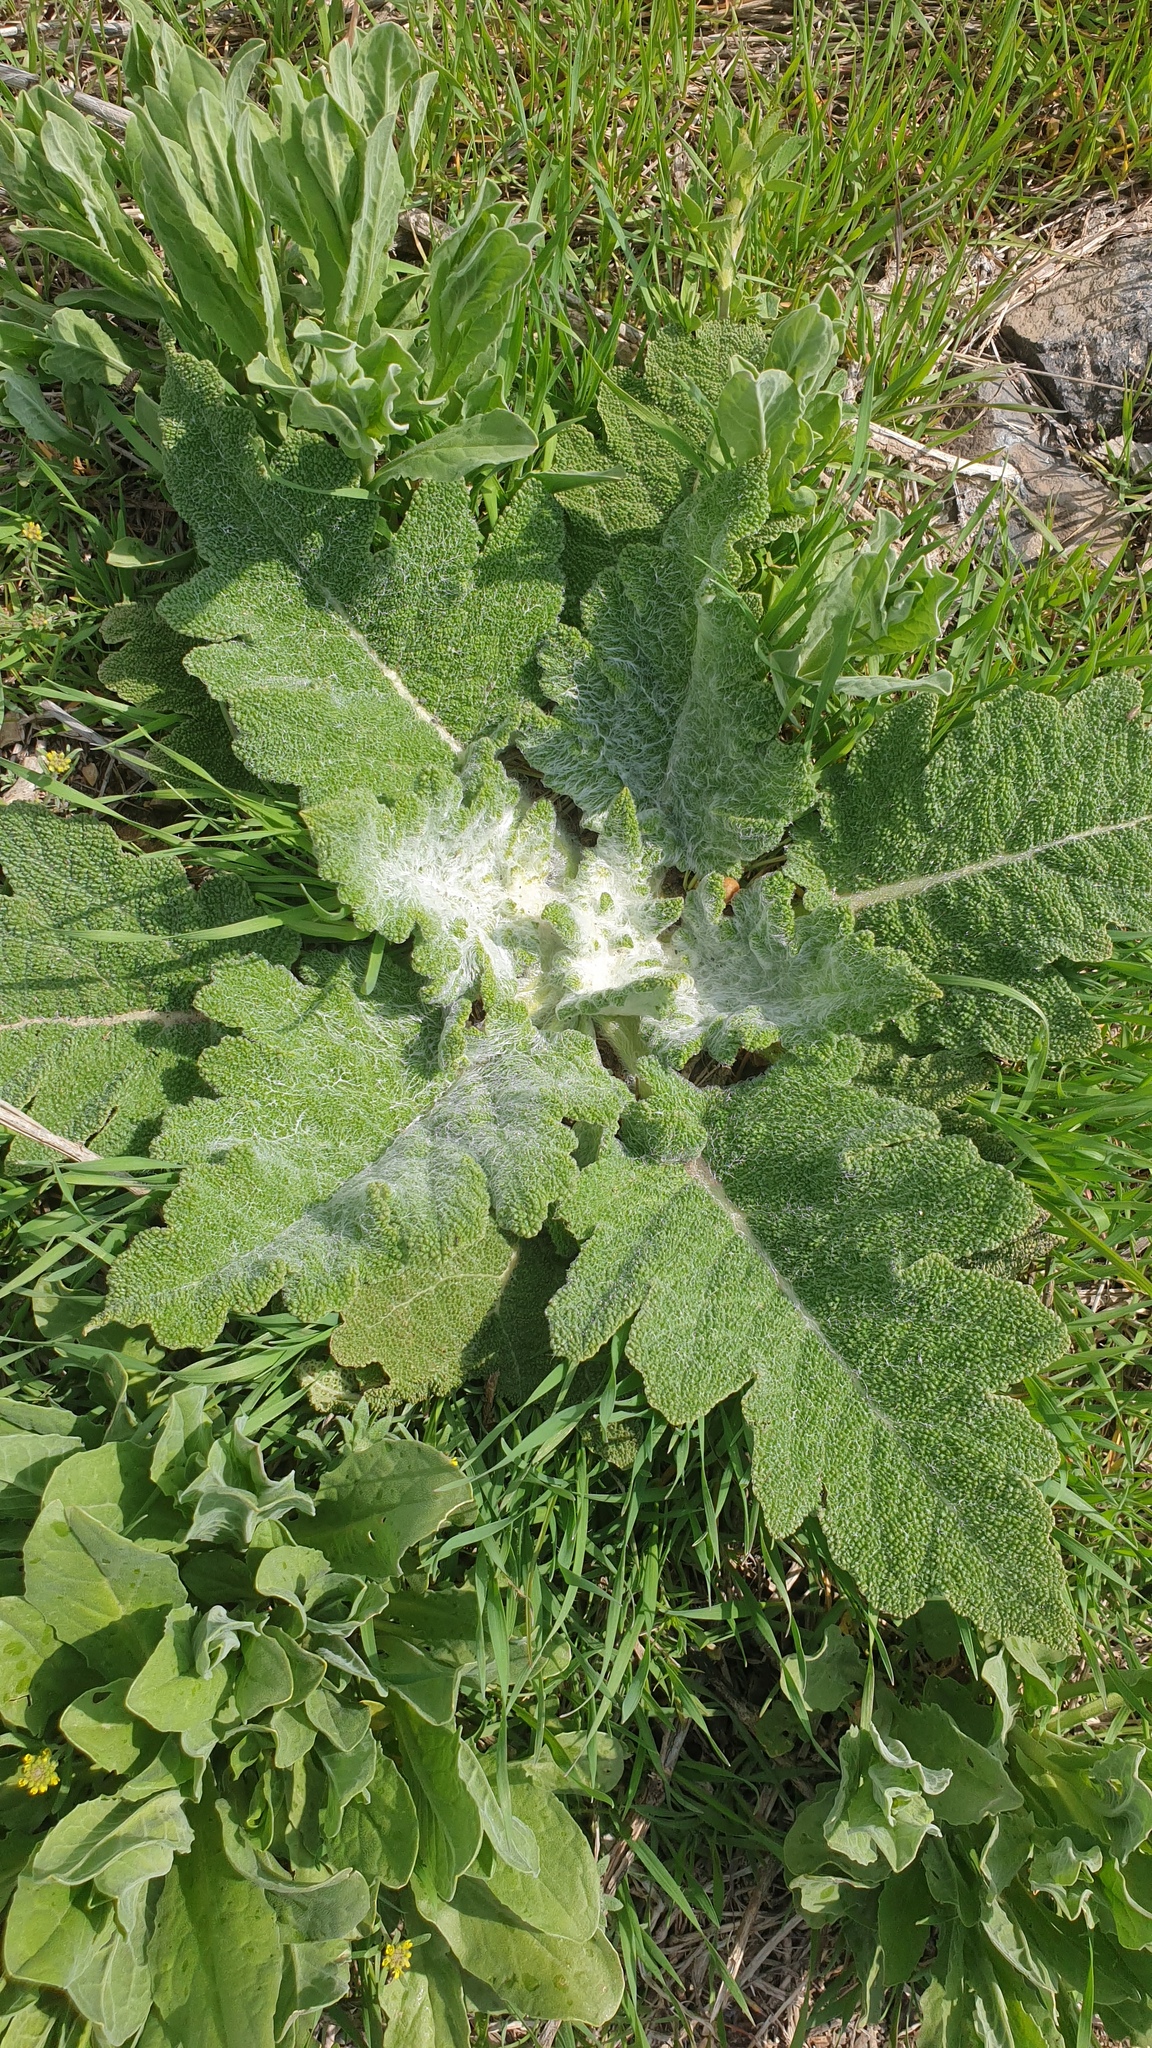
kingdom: Plantae
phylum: Tracheophyta
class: Magnoliopsida
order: Lamiales
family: Lamiaceae
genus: Salvia
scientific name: Salvia aethiopis
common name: Mediterranean sage
